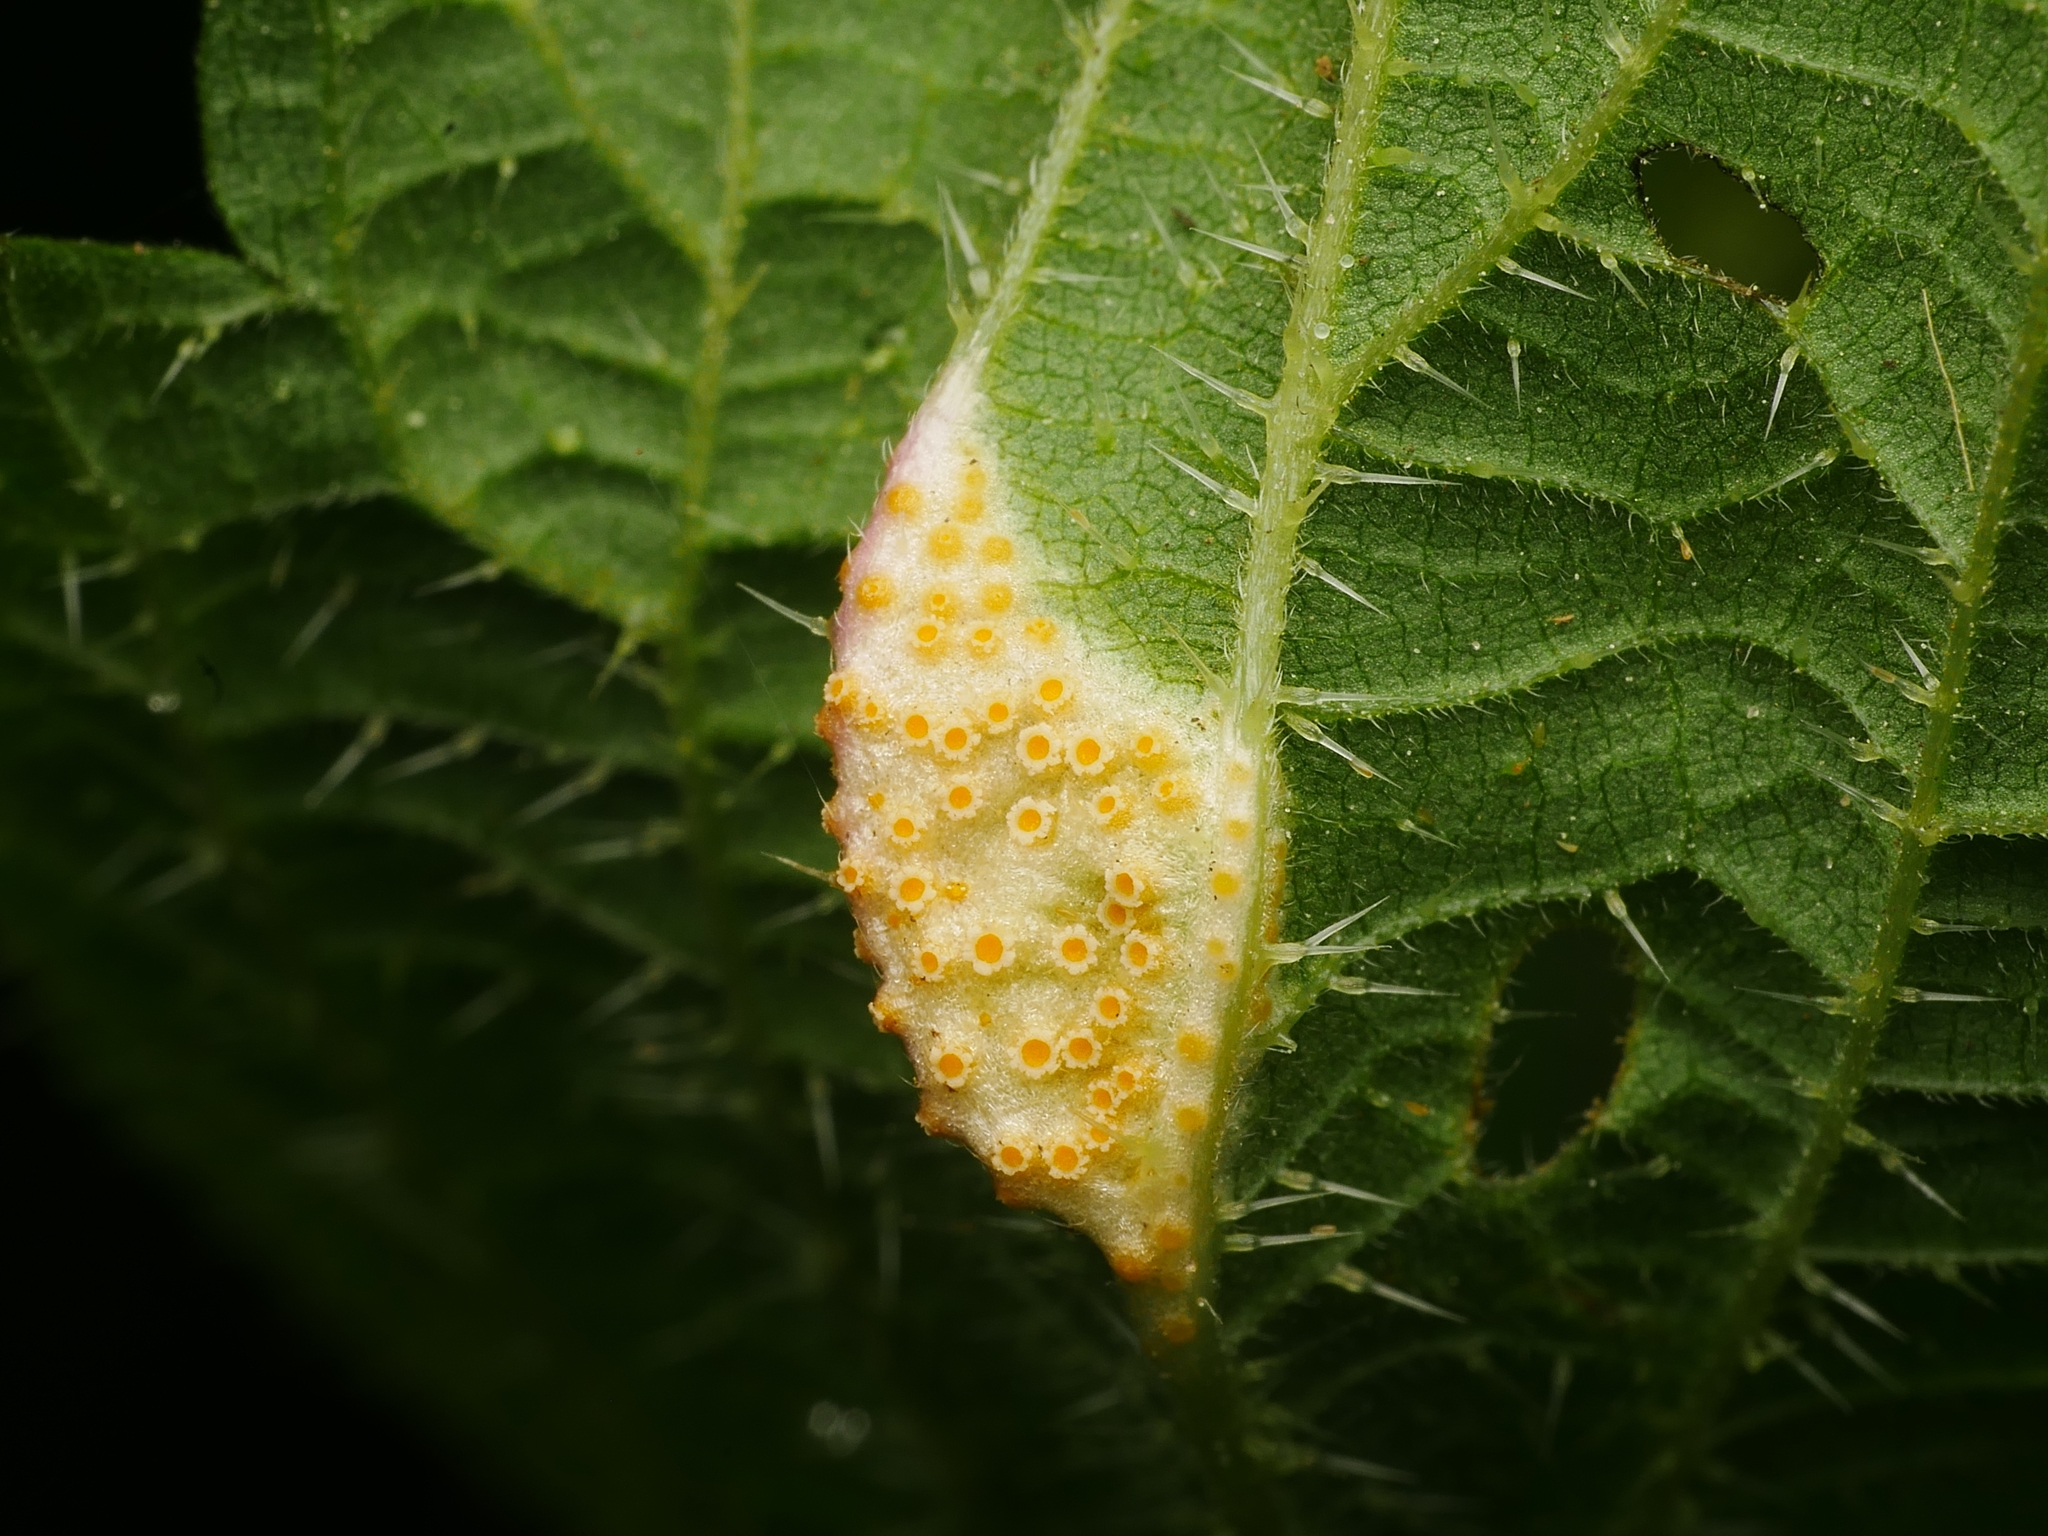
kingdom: Fungi
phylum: Basidiomycota
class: Pucciniomycetes
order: Pucciniales
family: Pucciniaceae
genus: Puccinia
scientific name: Puccinia urticata
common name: Nettle clustercup rust fungus
